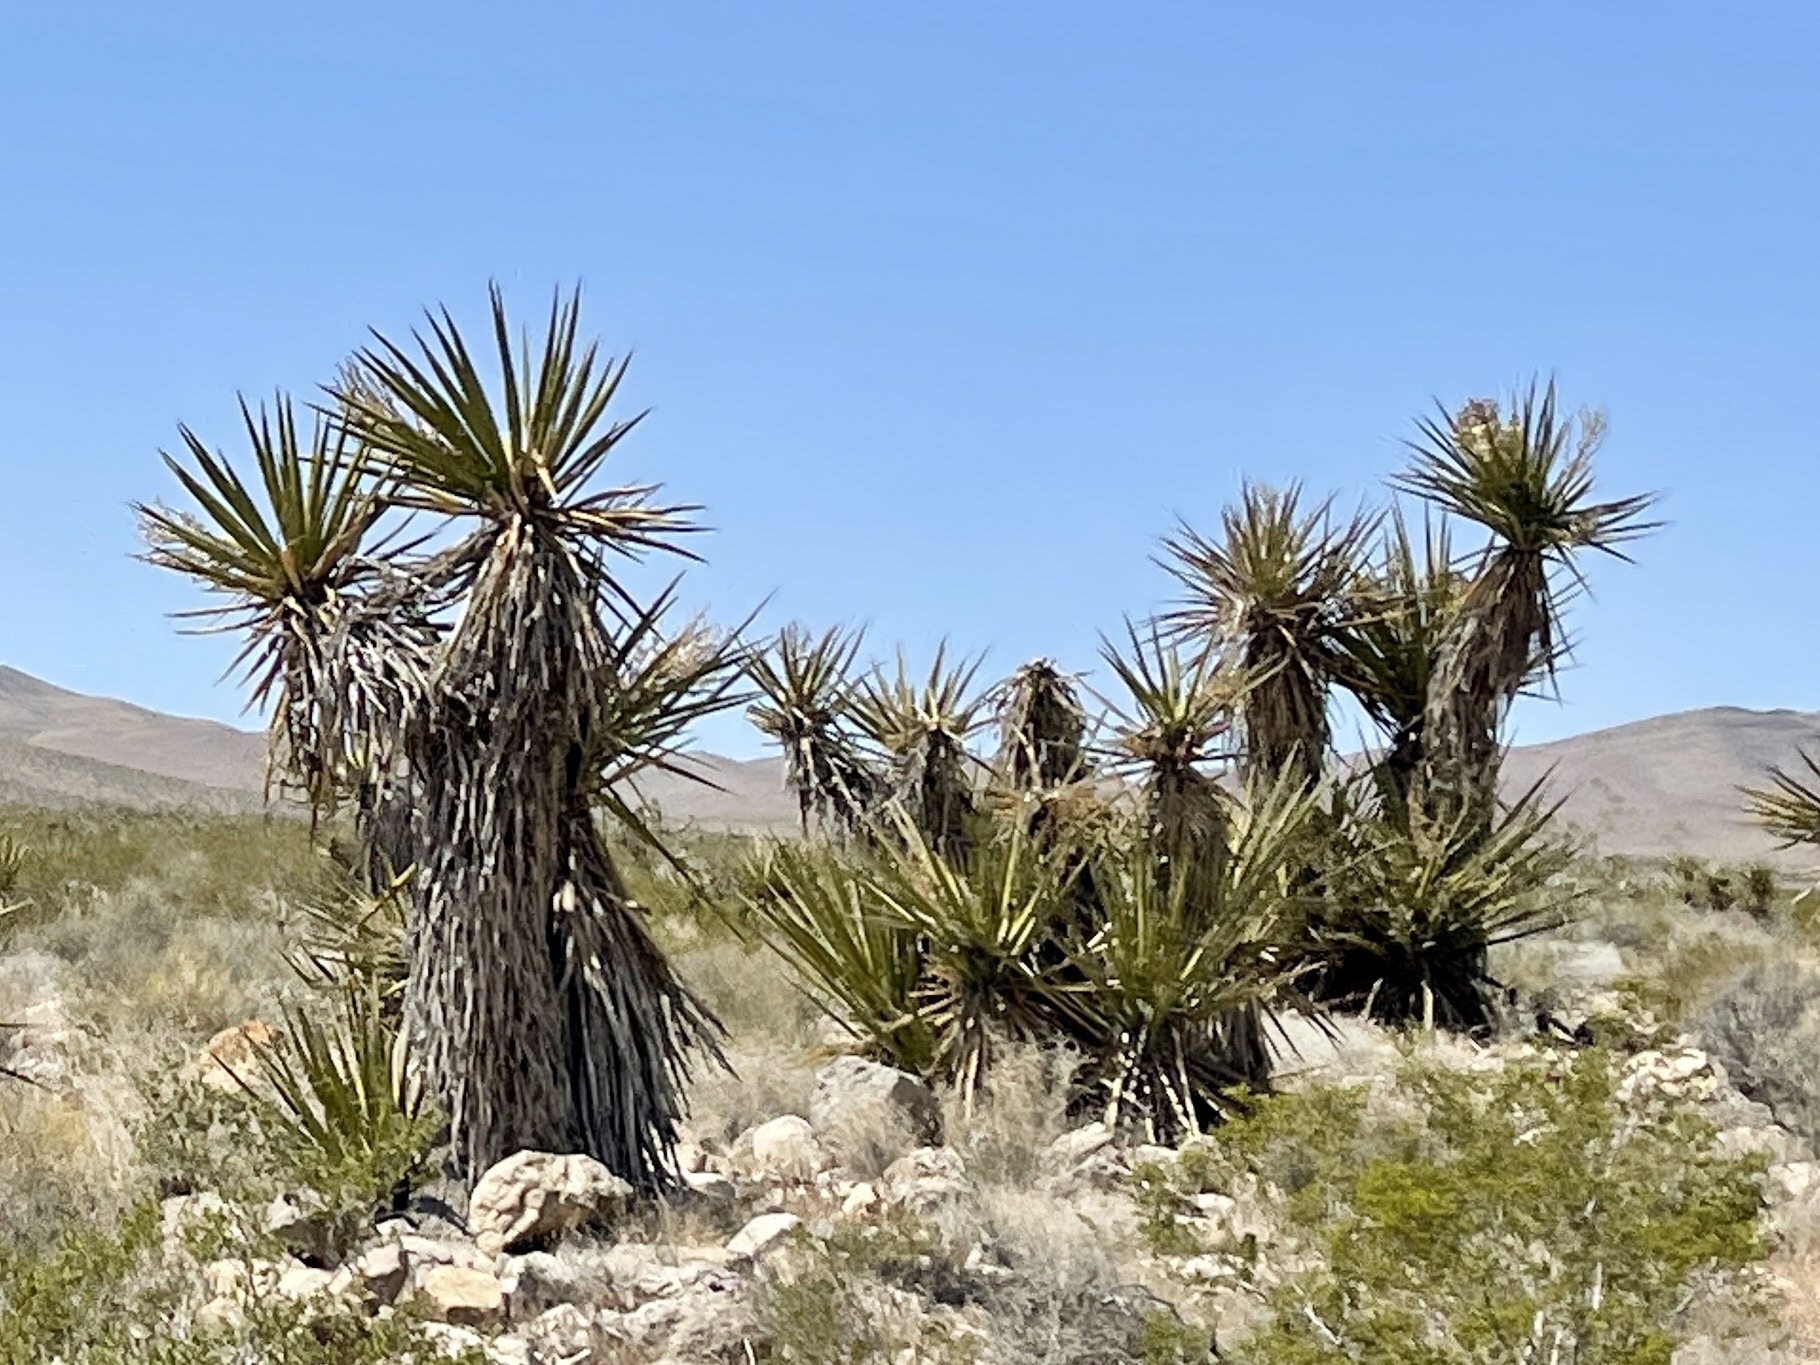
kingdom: Plantae
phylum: Tracheophyta
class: Liliopsida
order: Asparagales
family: Asparagaceae
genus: Yucca
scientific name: Yucca schidigera
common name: Mojave yucca
